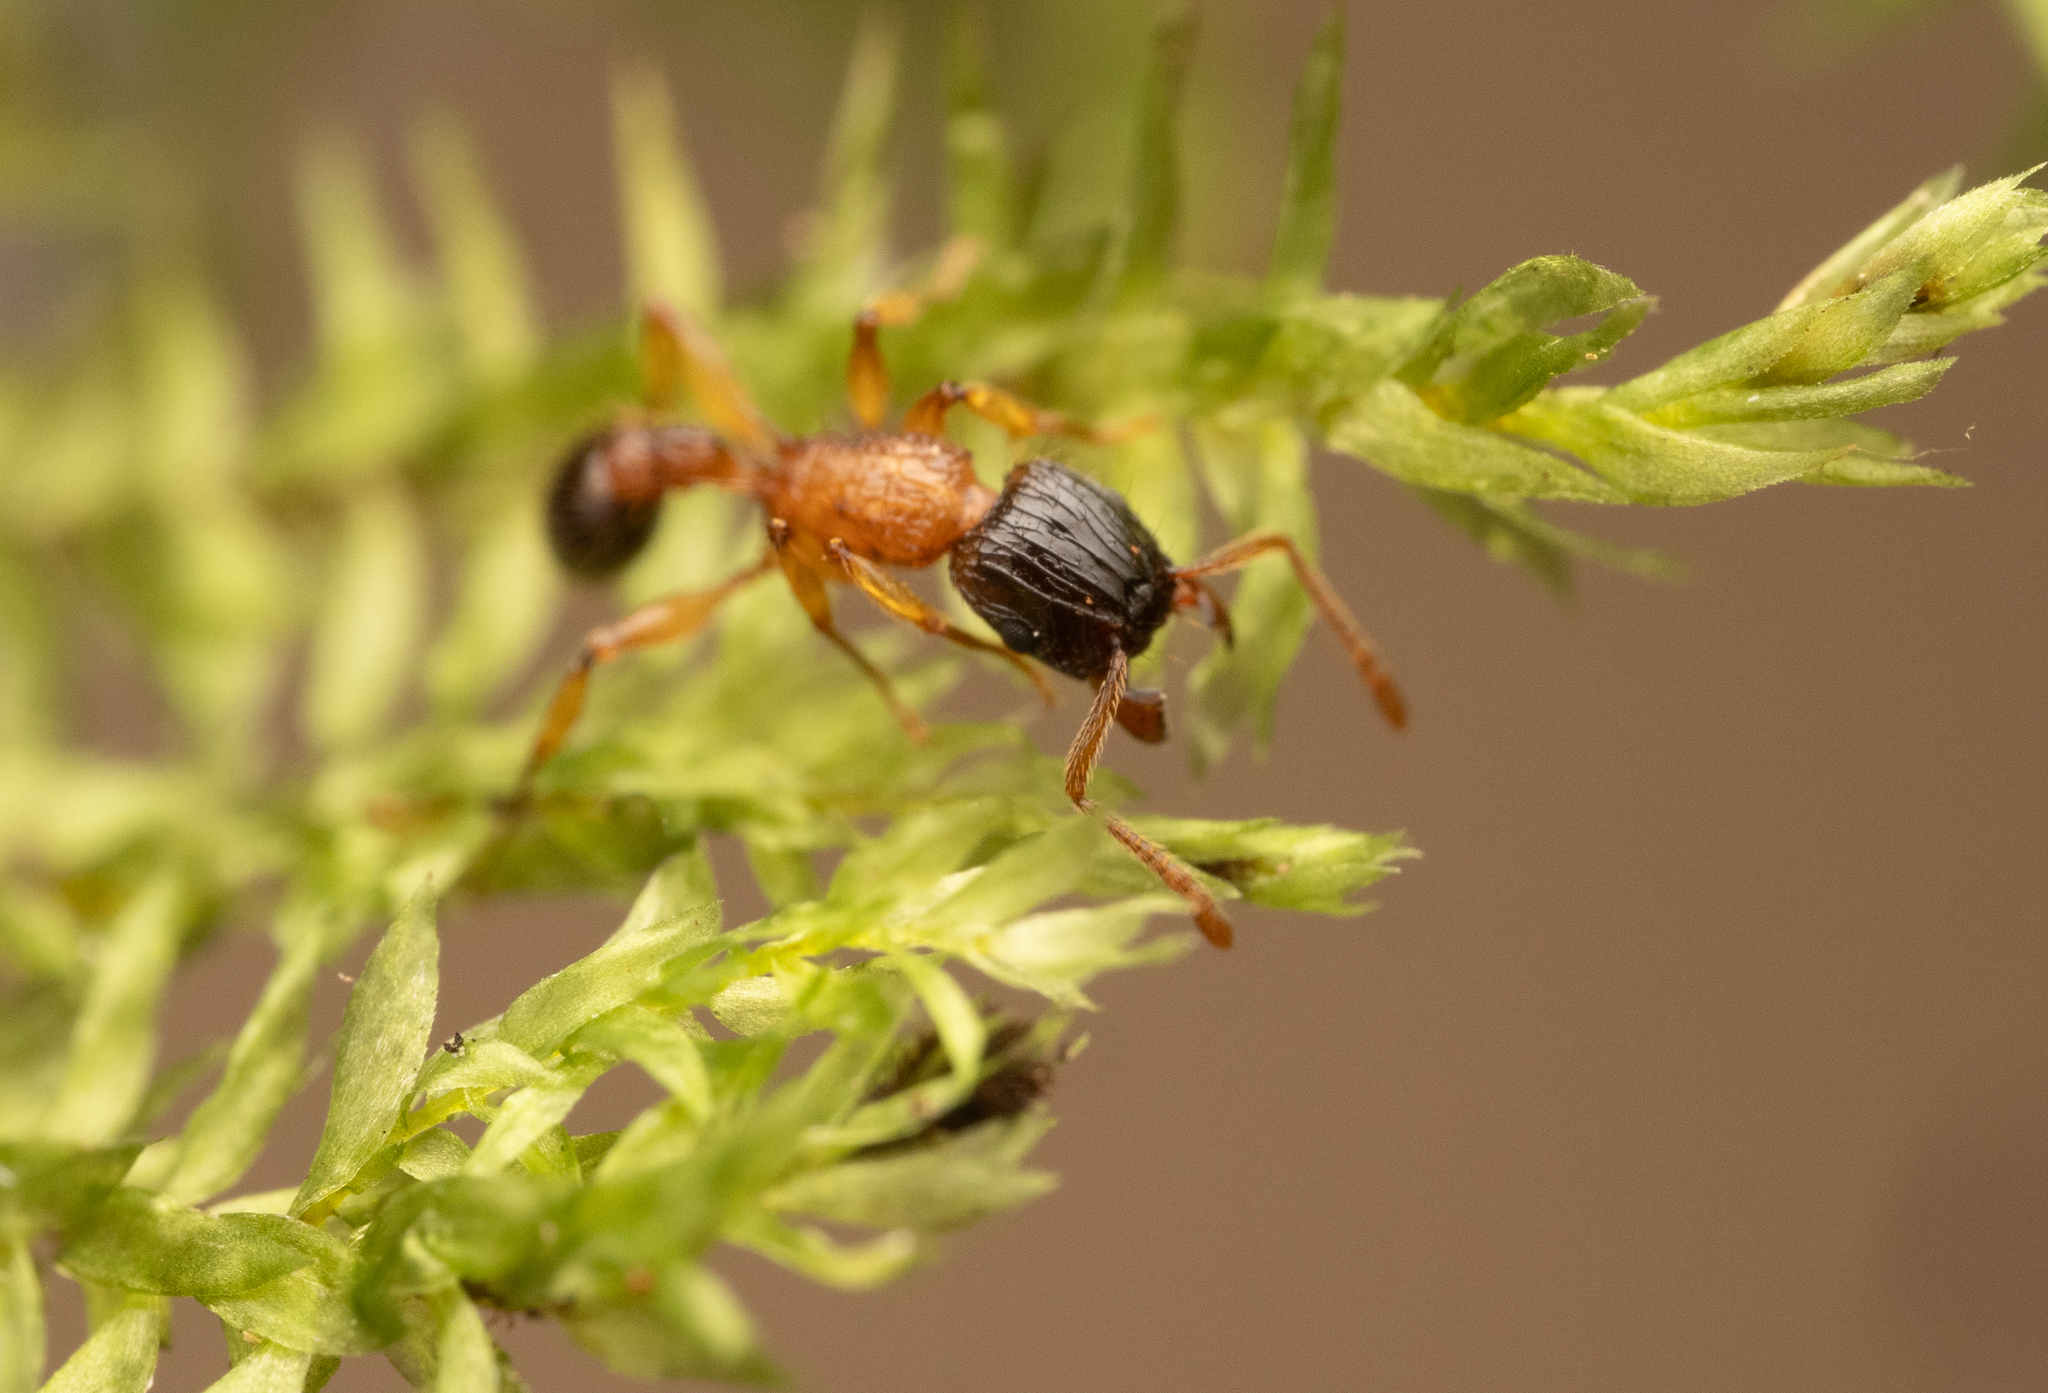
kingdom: Animalia
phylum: Arthropoda
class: Insecta
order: Hymenoptera
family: Formicidae
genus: Tetramorium
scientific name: Tetramorium tricarinatum
